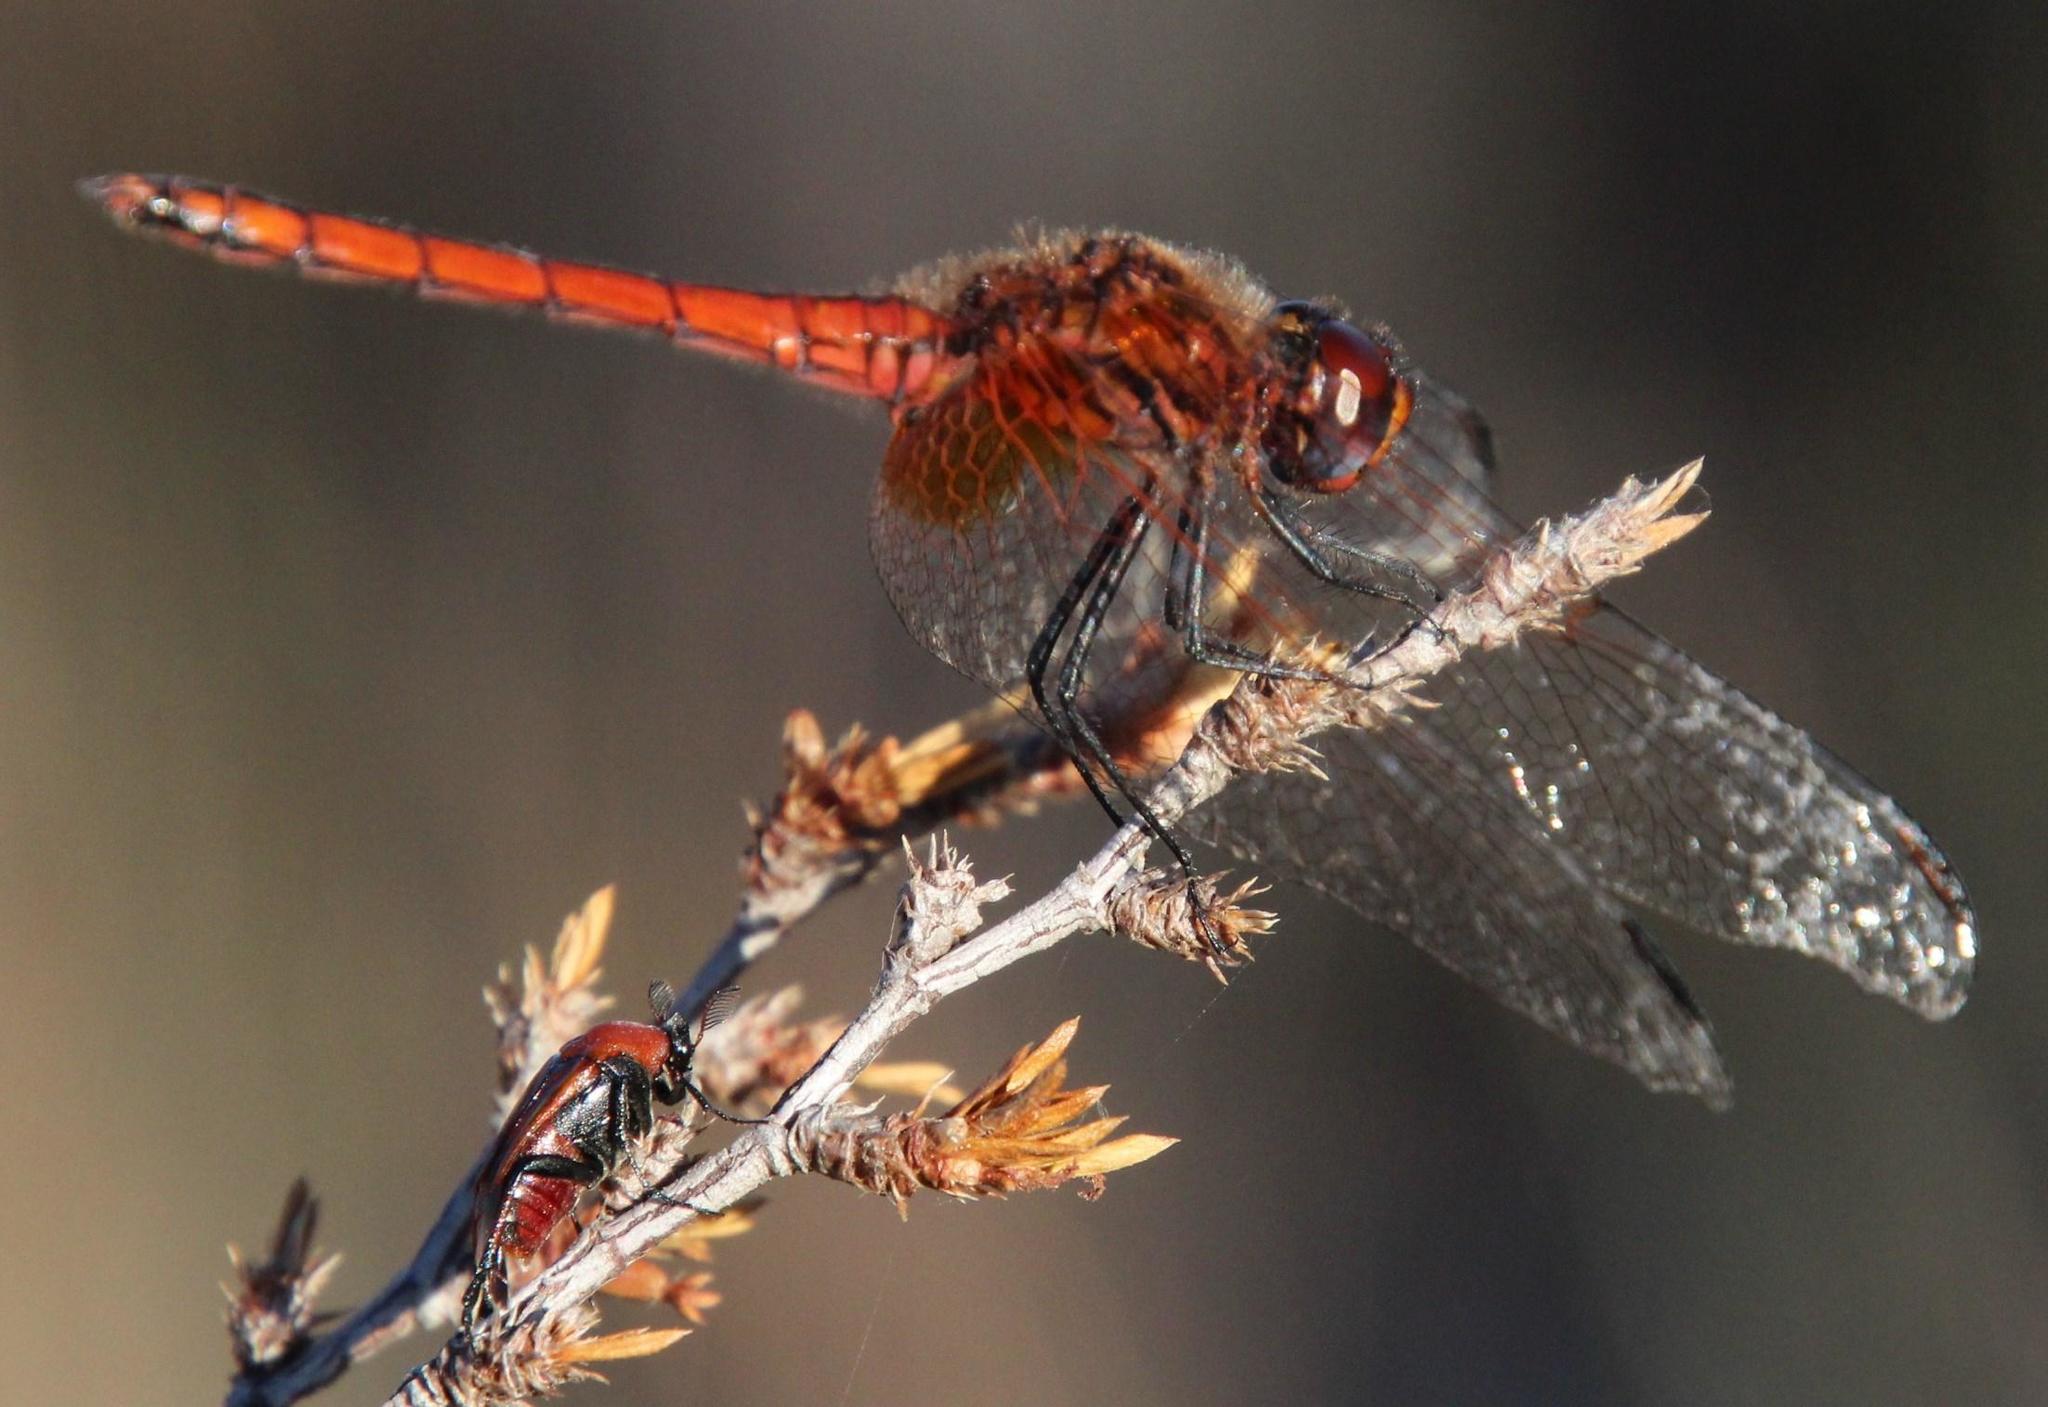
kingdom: Animalia
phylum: Arthropoda
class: Insecta
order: Odonata
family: Libellulidae
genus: Trithemis
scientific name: Trithemis pluvialis
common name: Russet dropwing
